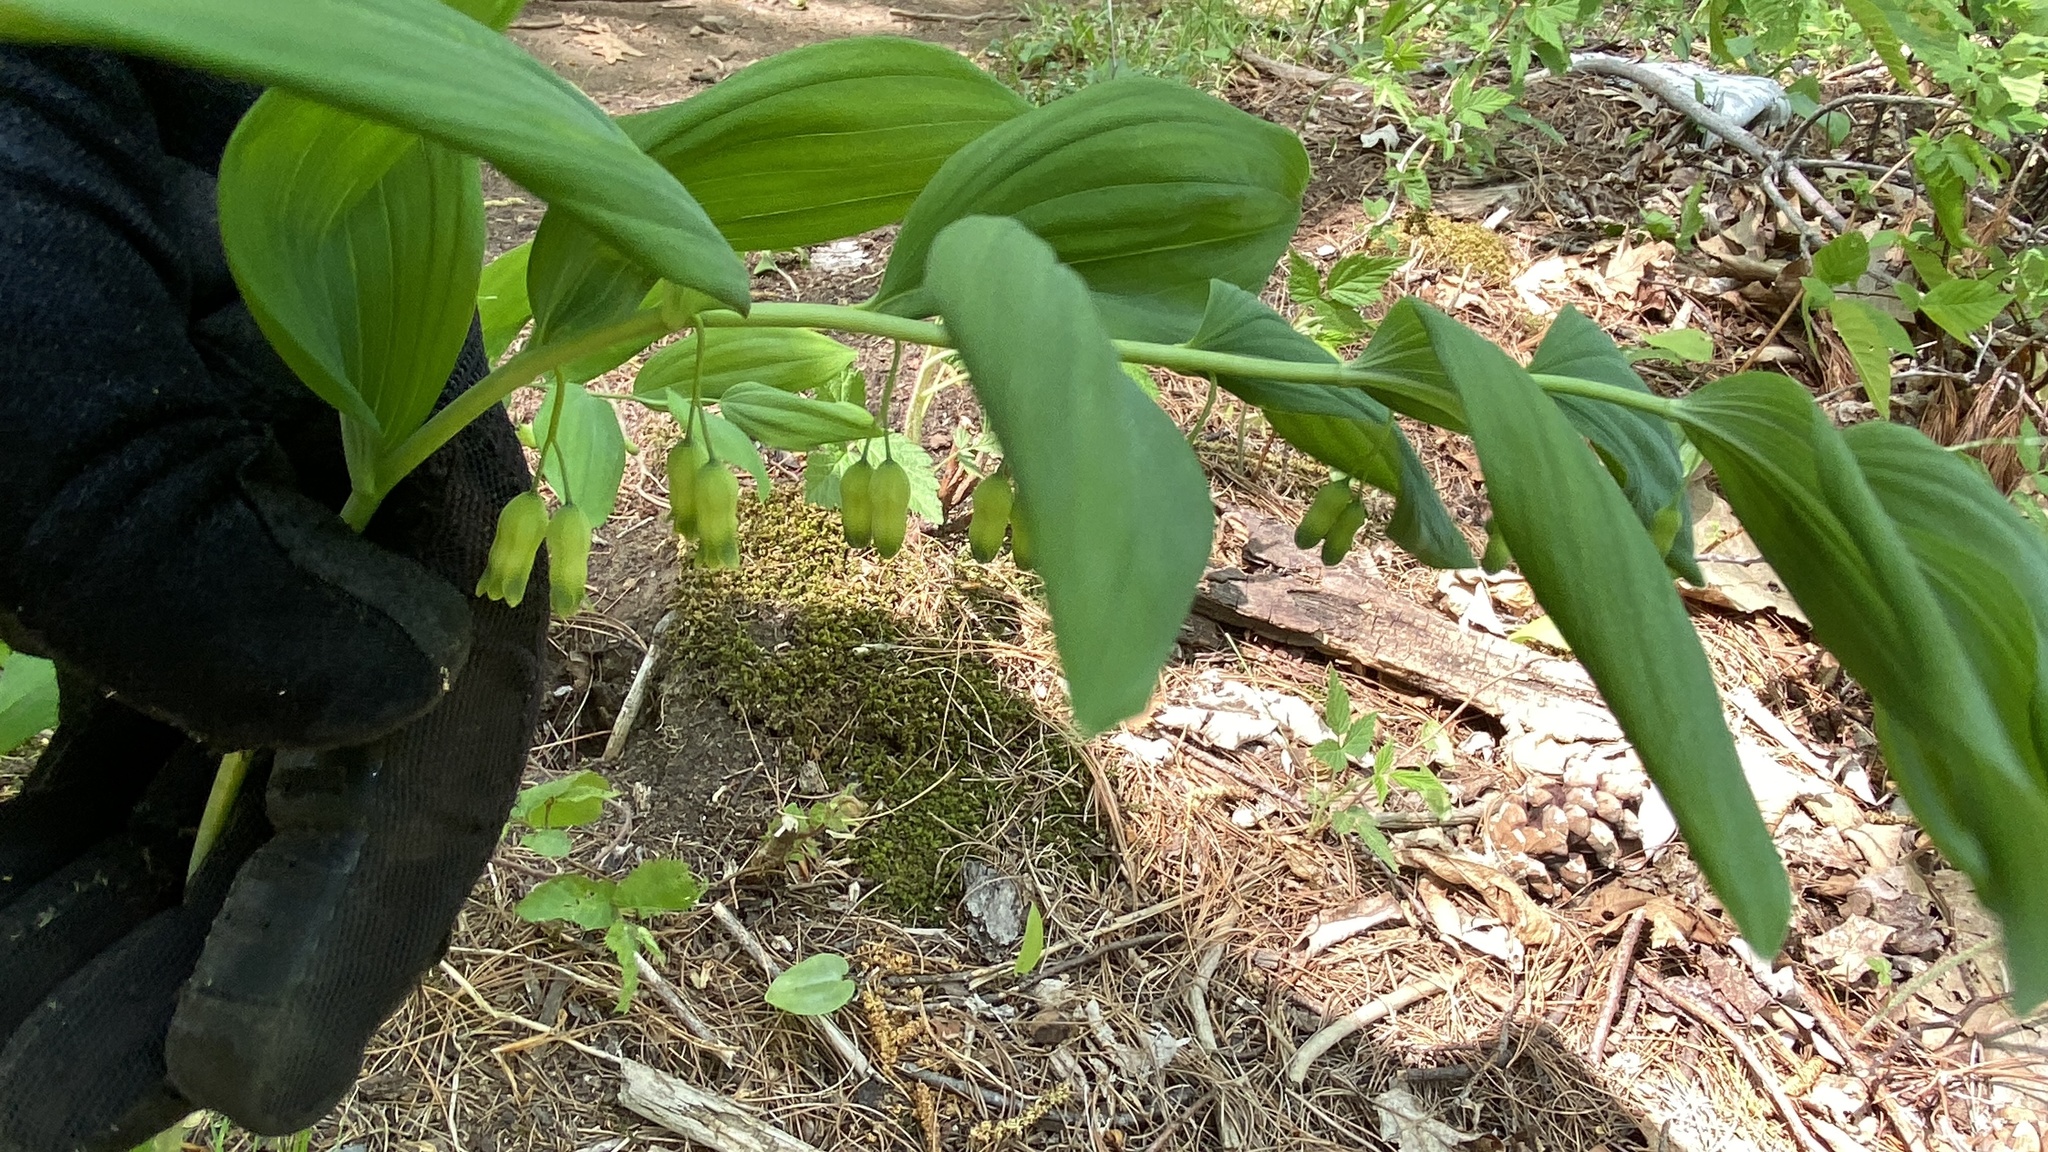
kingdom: Plantae
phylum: Tracheophyta
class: Liliopsida
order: Asparagales
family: Asparagaceae
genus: Polygonatum
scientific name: Polygonatum pubescens
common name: Downy solomon's seal
